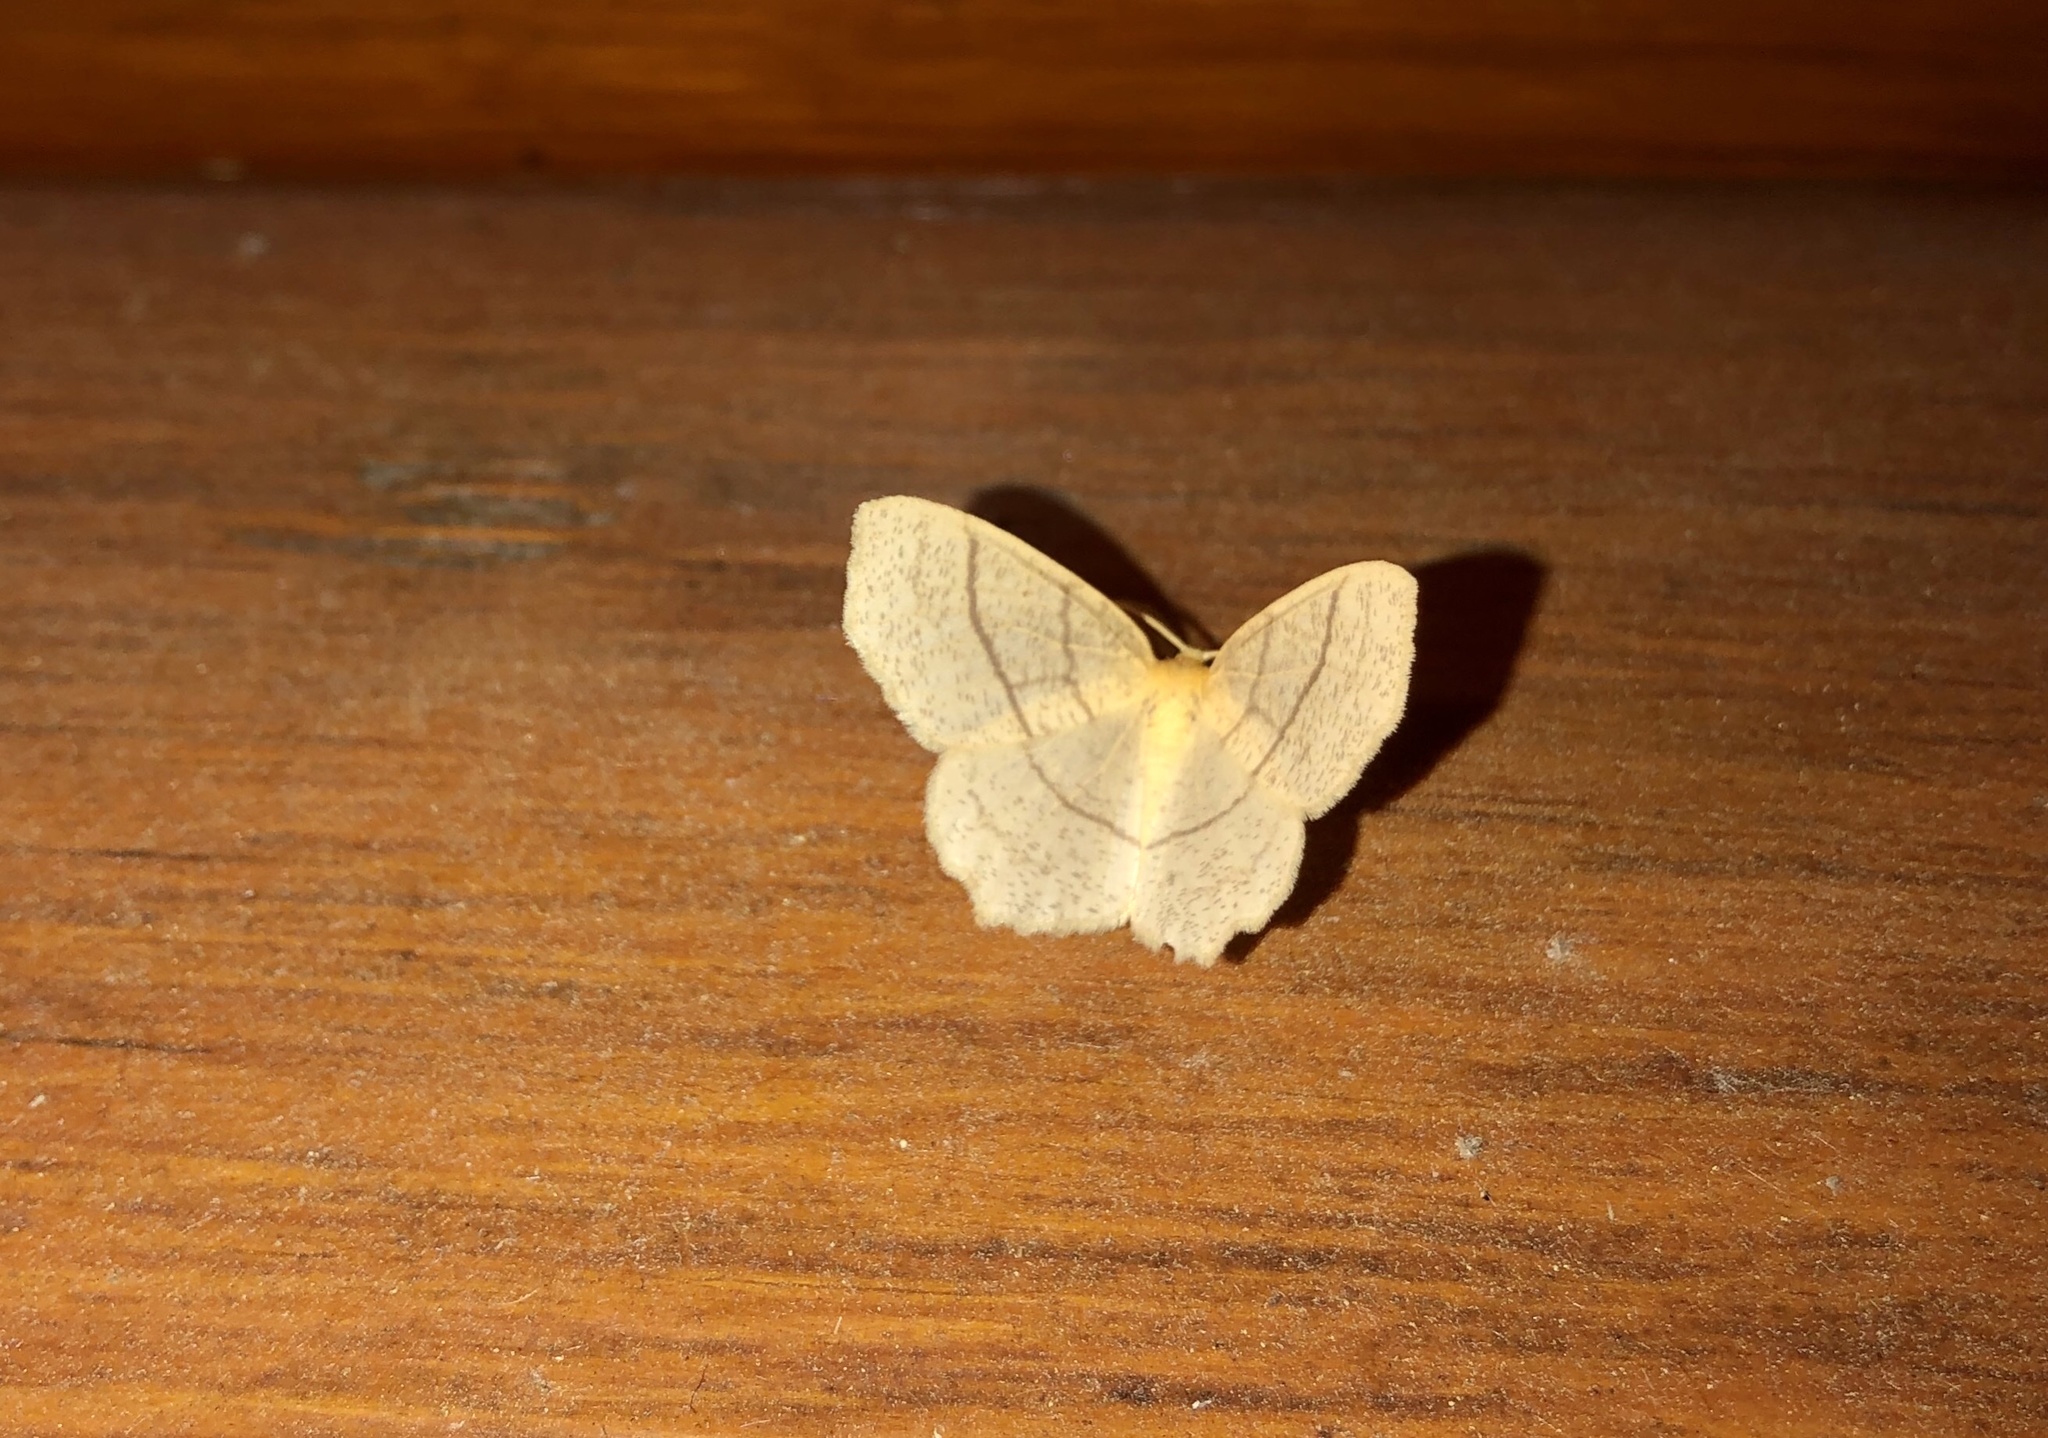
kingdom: Animalia
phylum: Arthropoda
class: Insecta
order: Lepidoptera
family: Geometridae
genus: Besma
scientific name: Besma quercivoraria
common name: Oak besma
